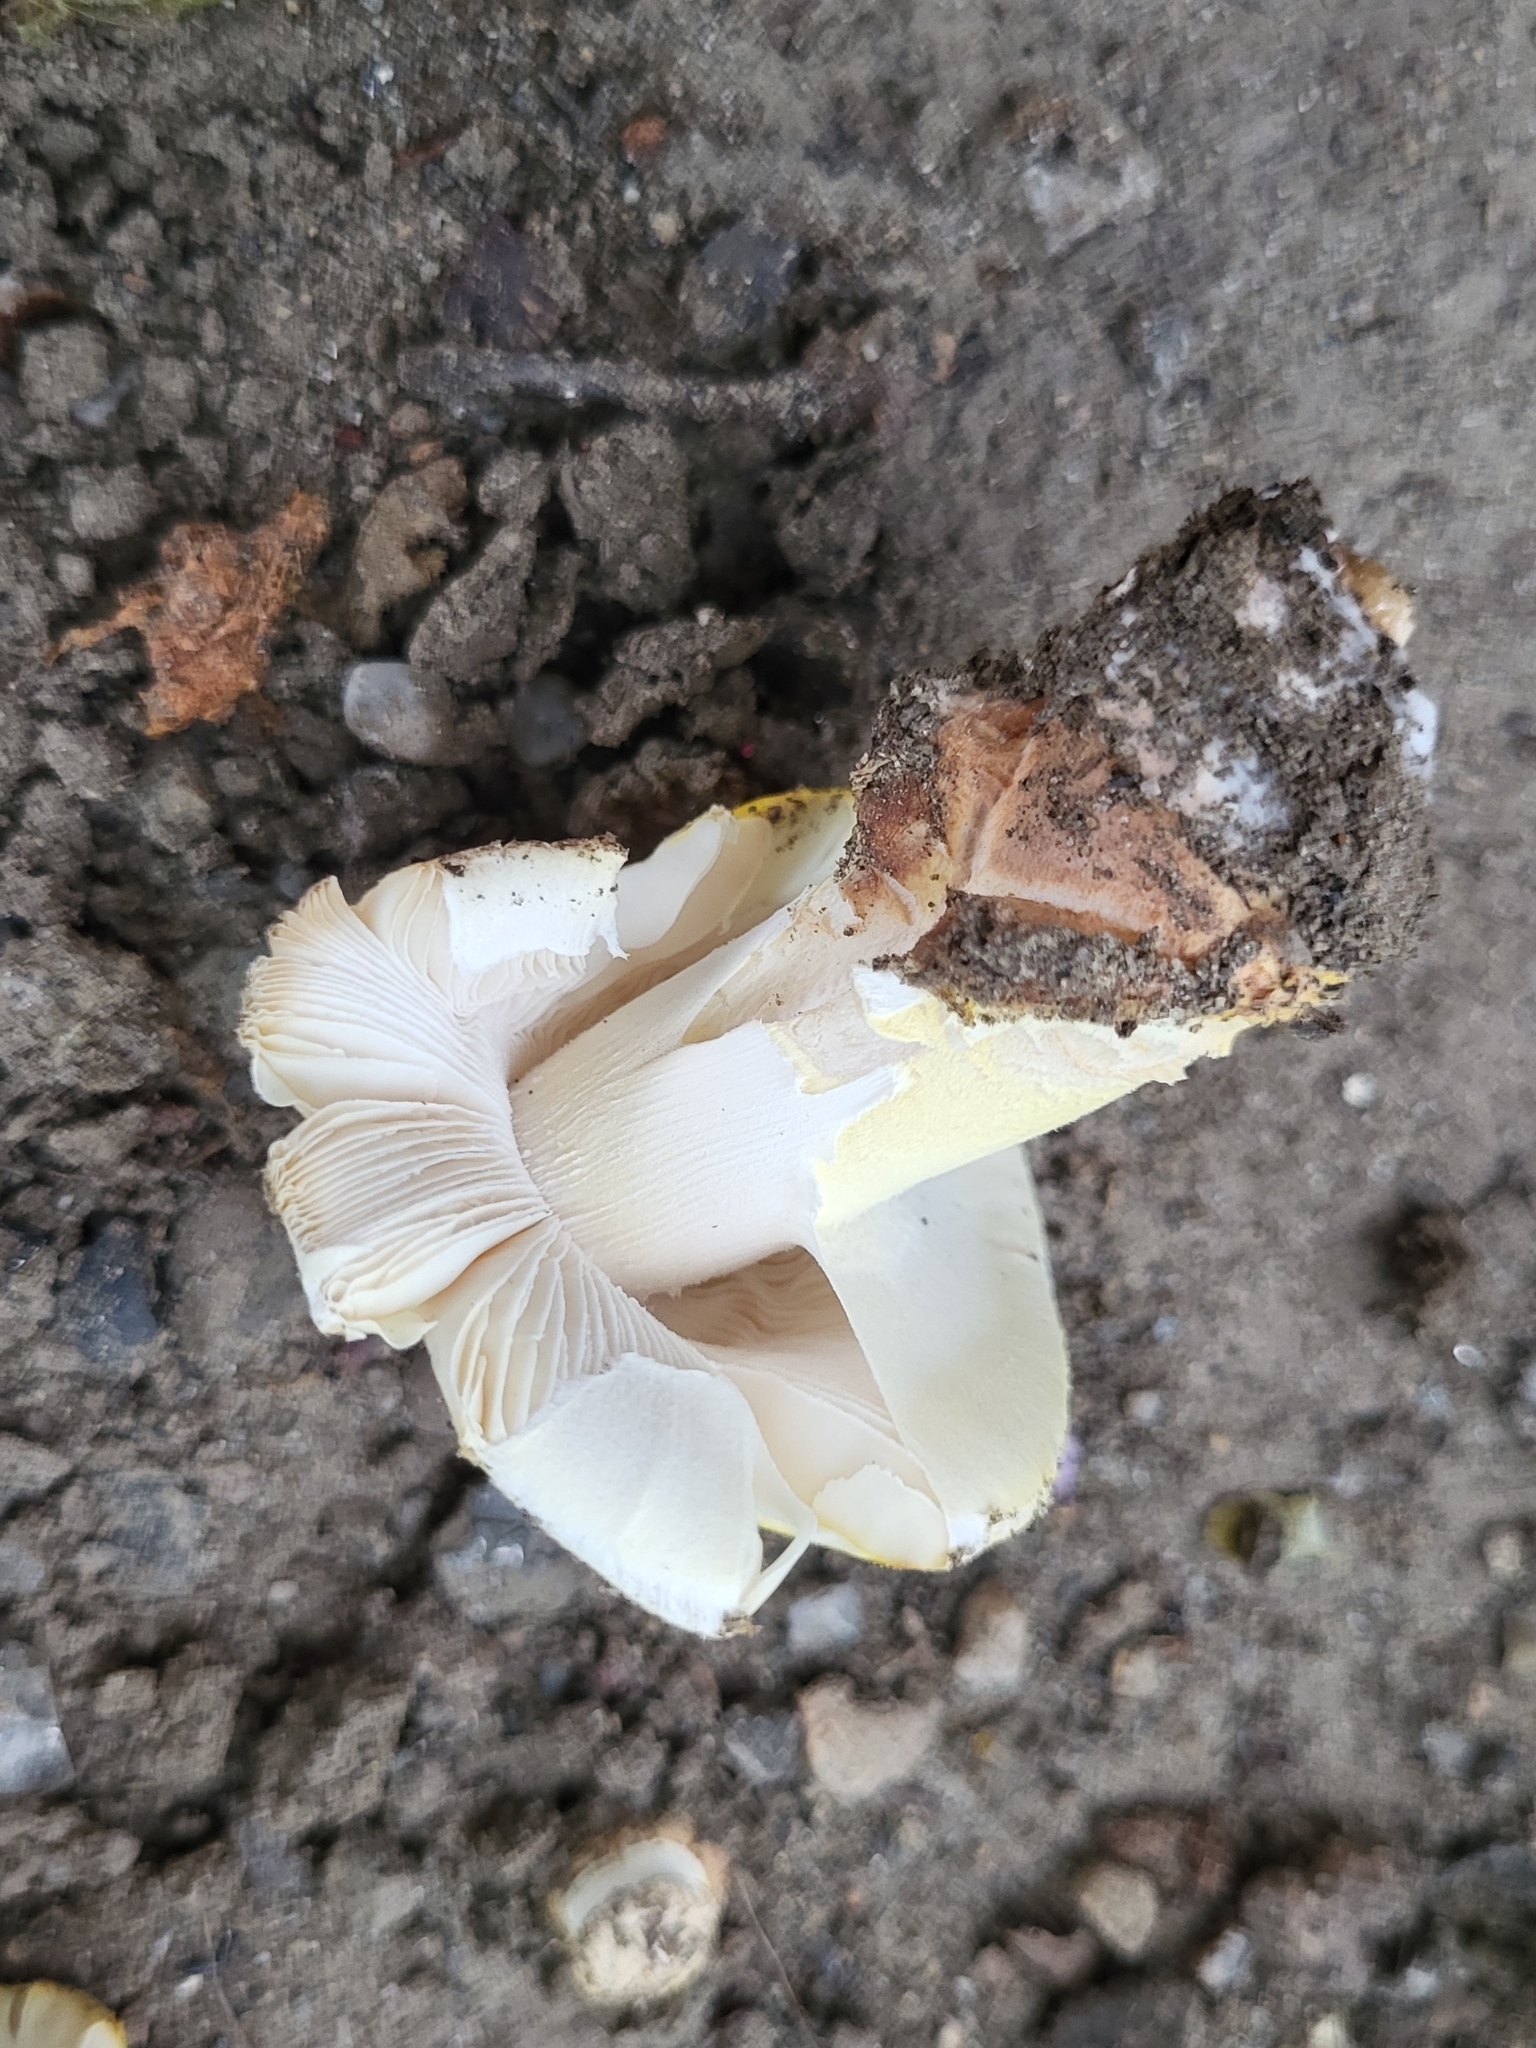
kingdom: Fungi
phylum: Basidiomycota
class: Agaricomycetes
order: Agaricales
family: Amanitaceae
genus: Amanita
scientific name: Amanita flavorubens
